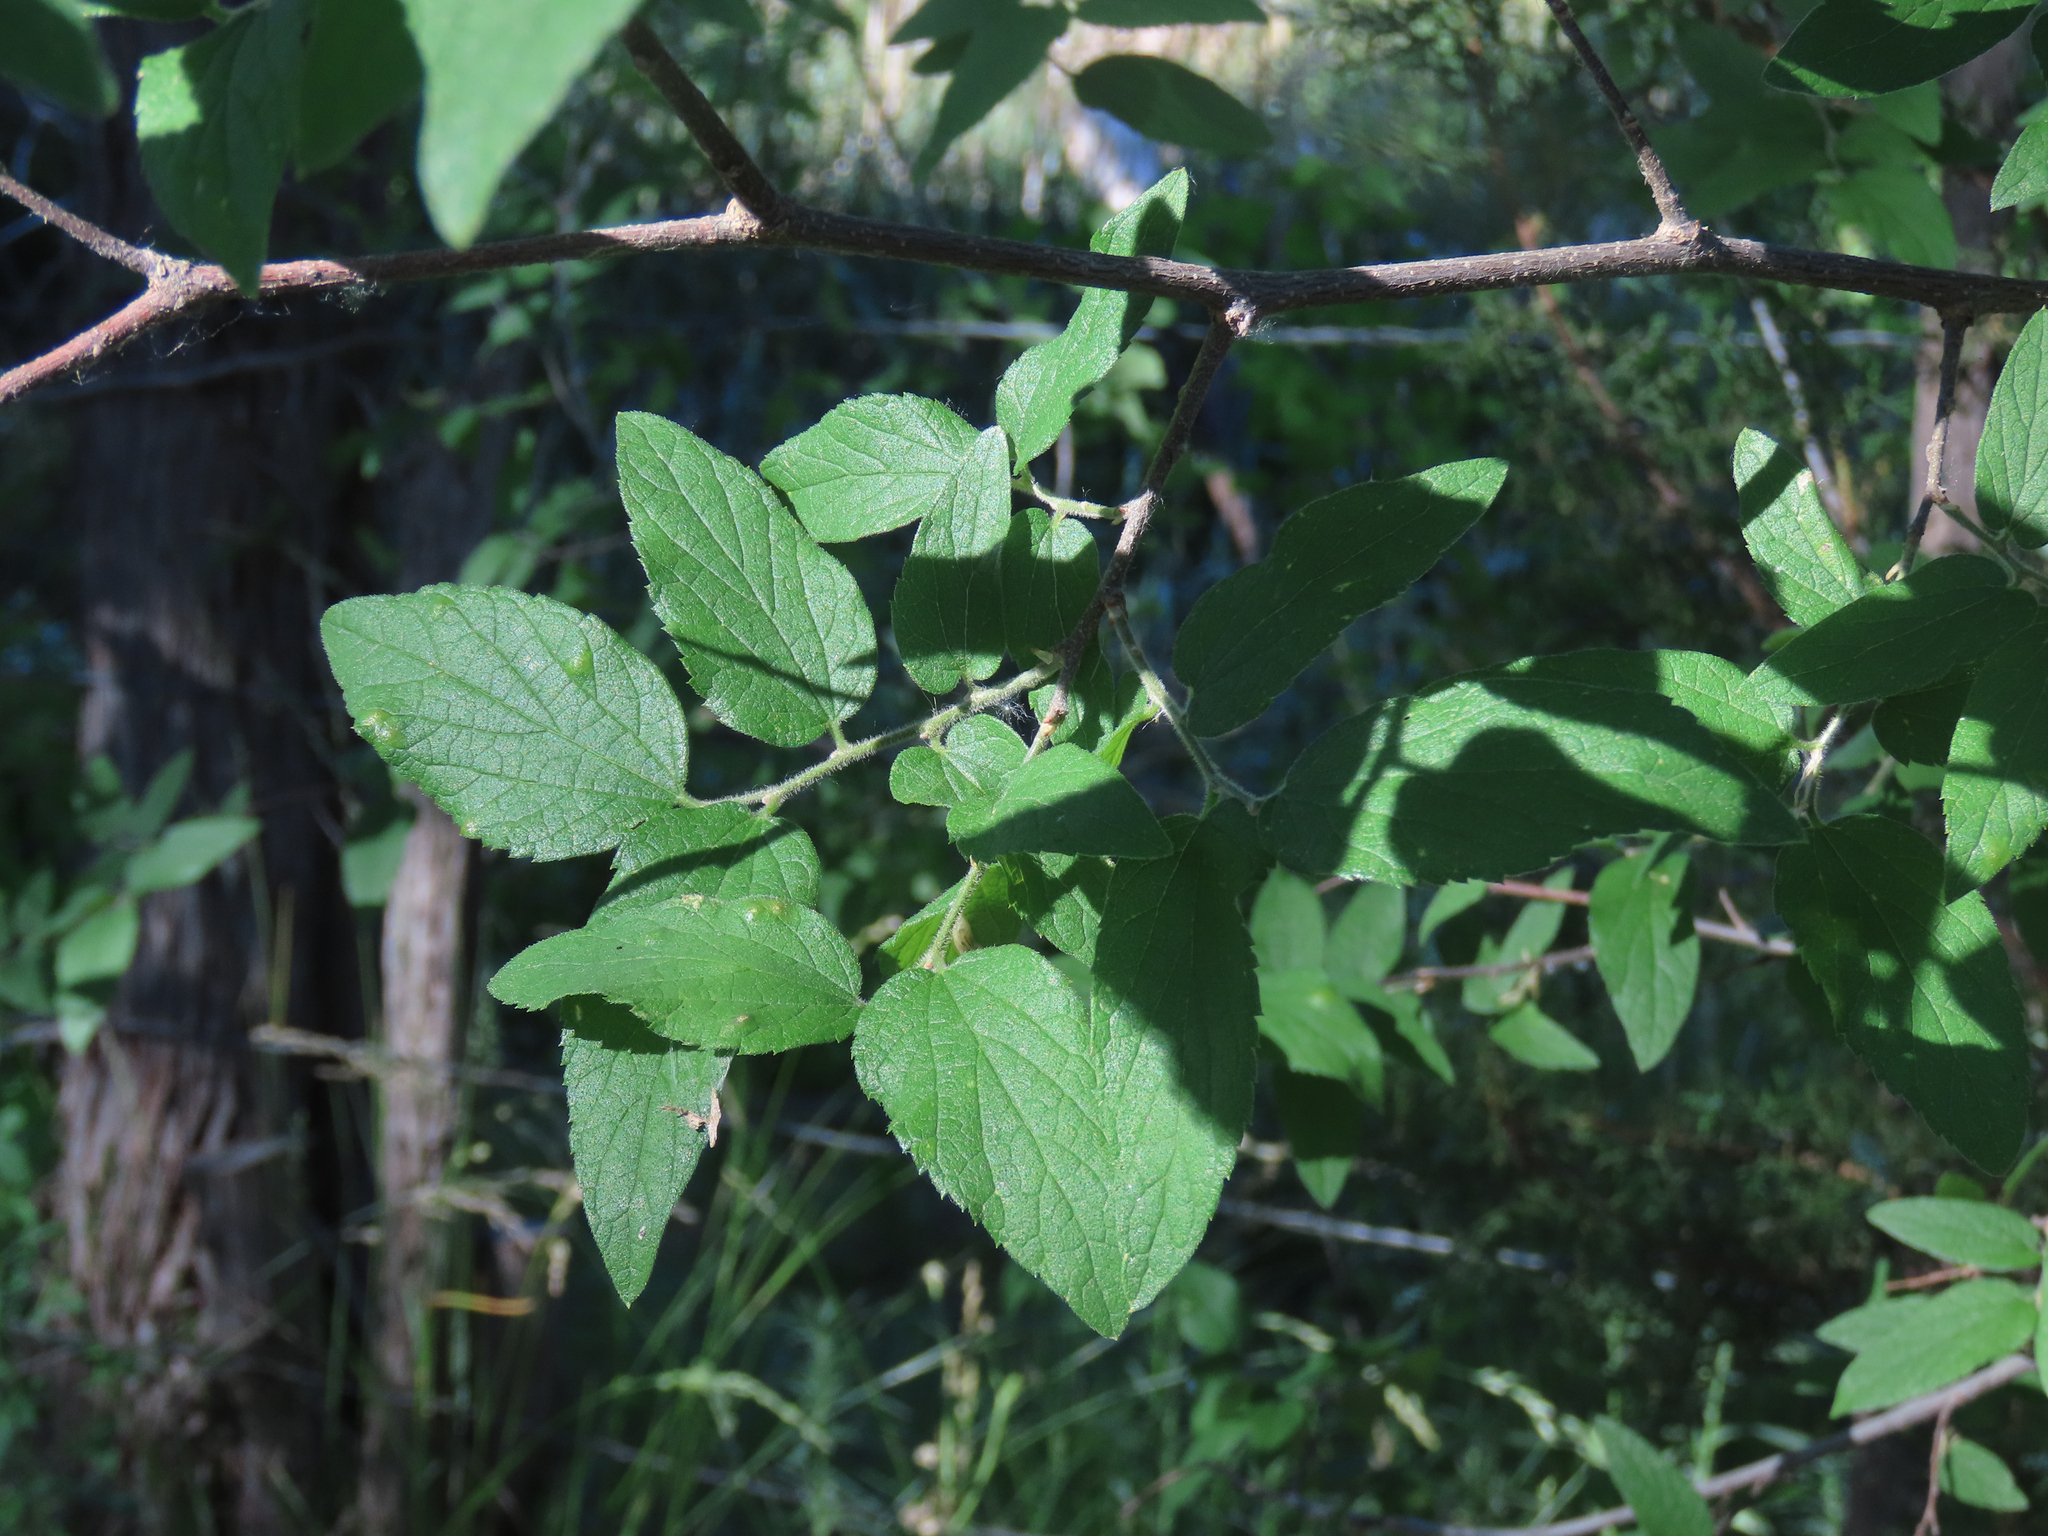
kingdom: Plantae
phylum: Tracheophyta
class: Magnoliopsida
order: Rosales
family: Cannabaceae
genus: Celtis
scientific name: Celtis reticulata
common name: Netleaf hackberry
